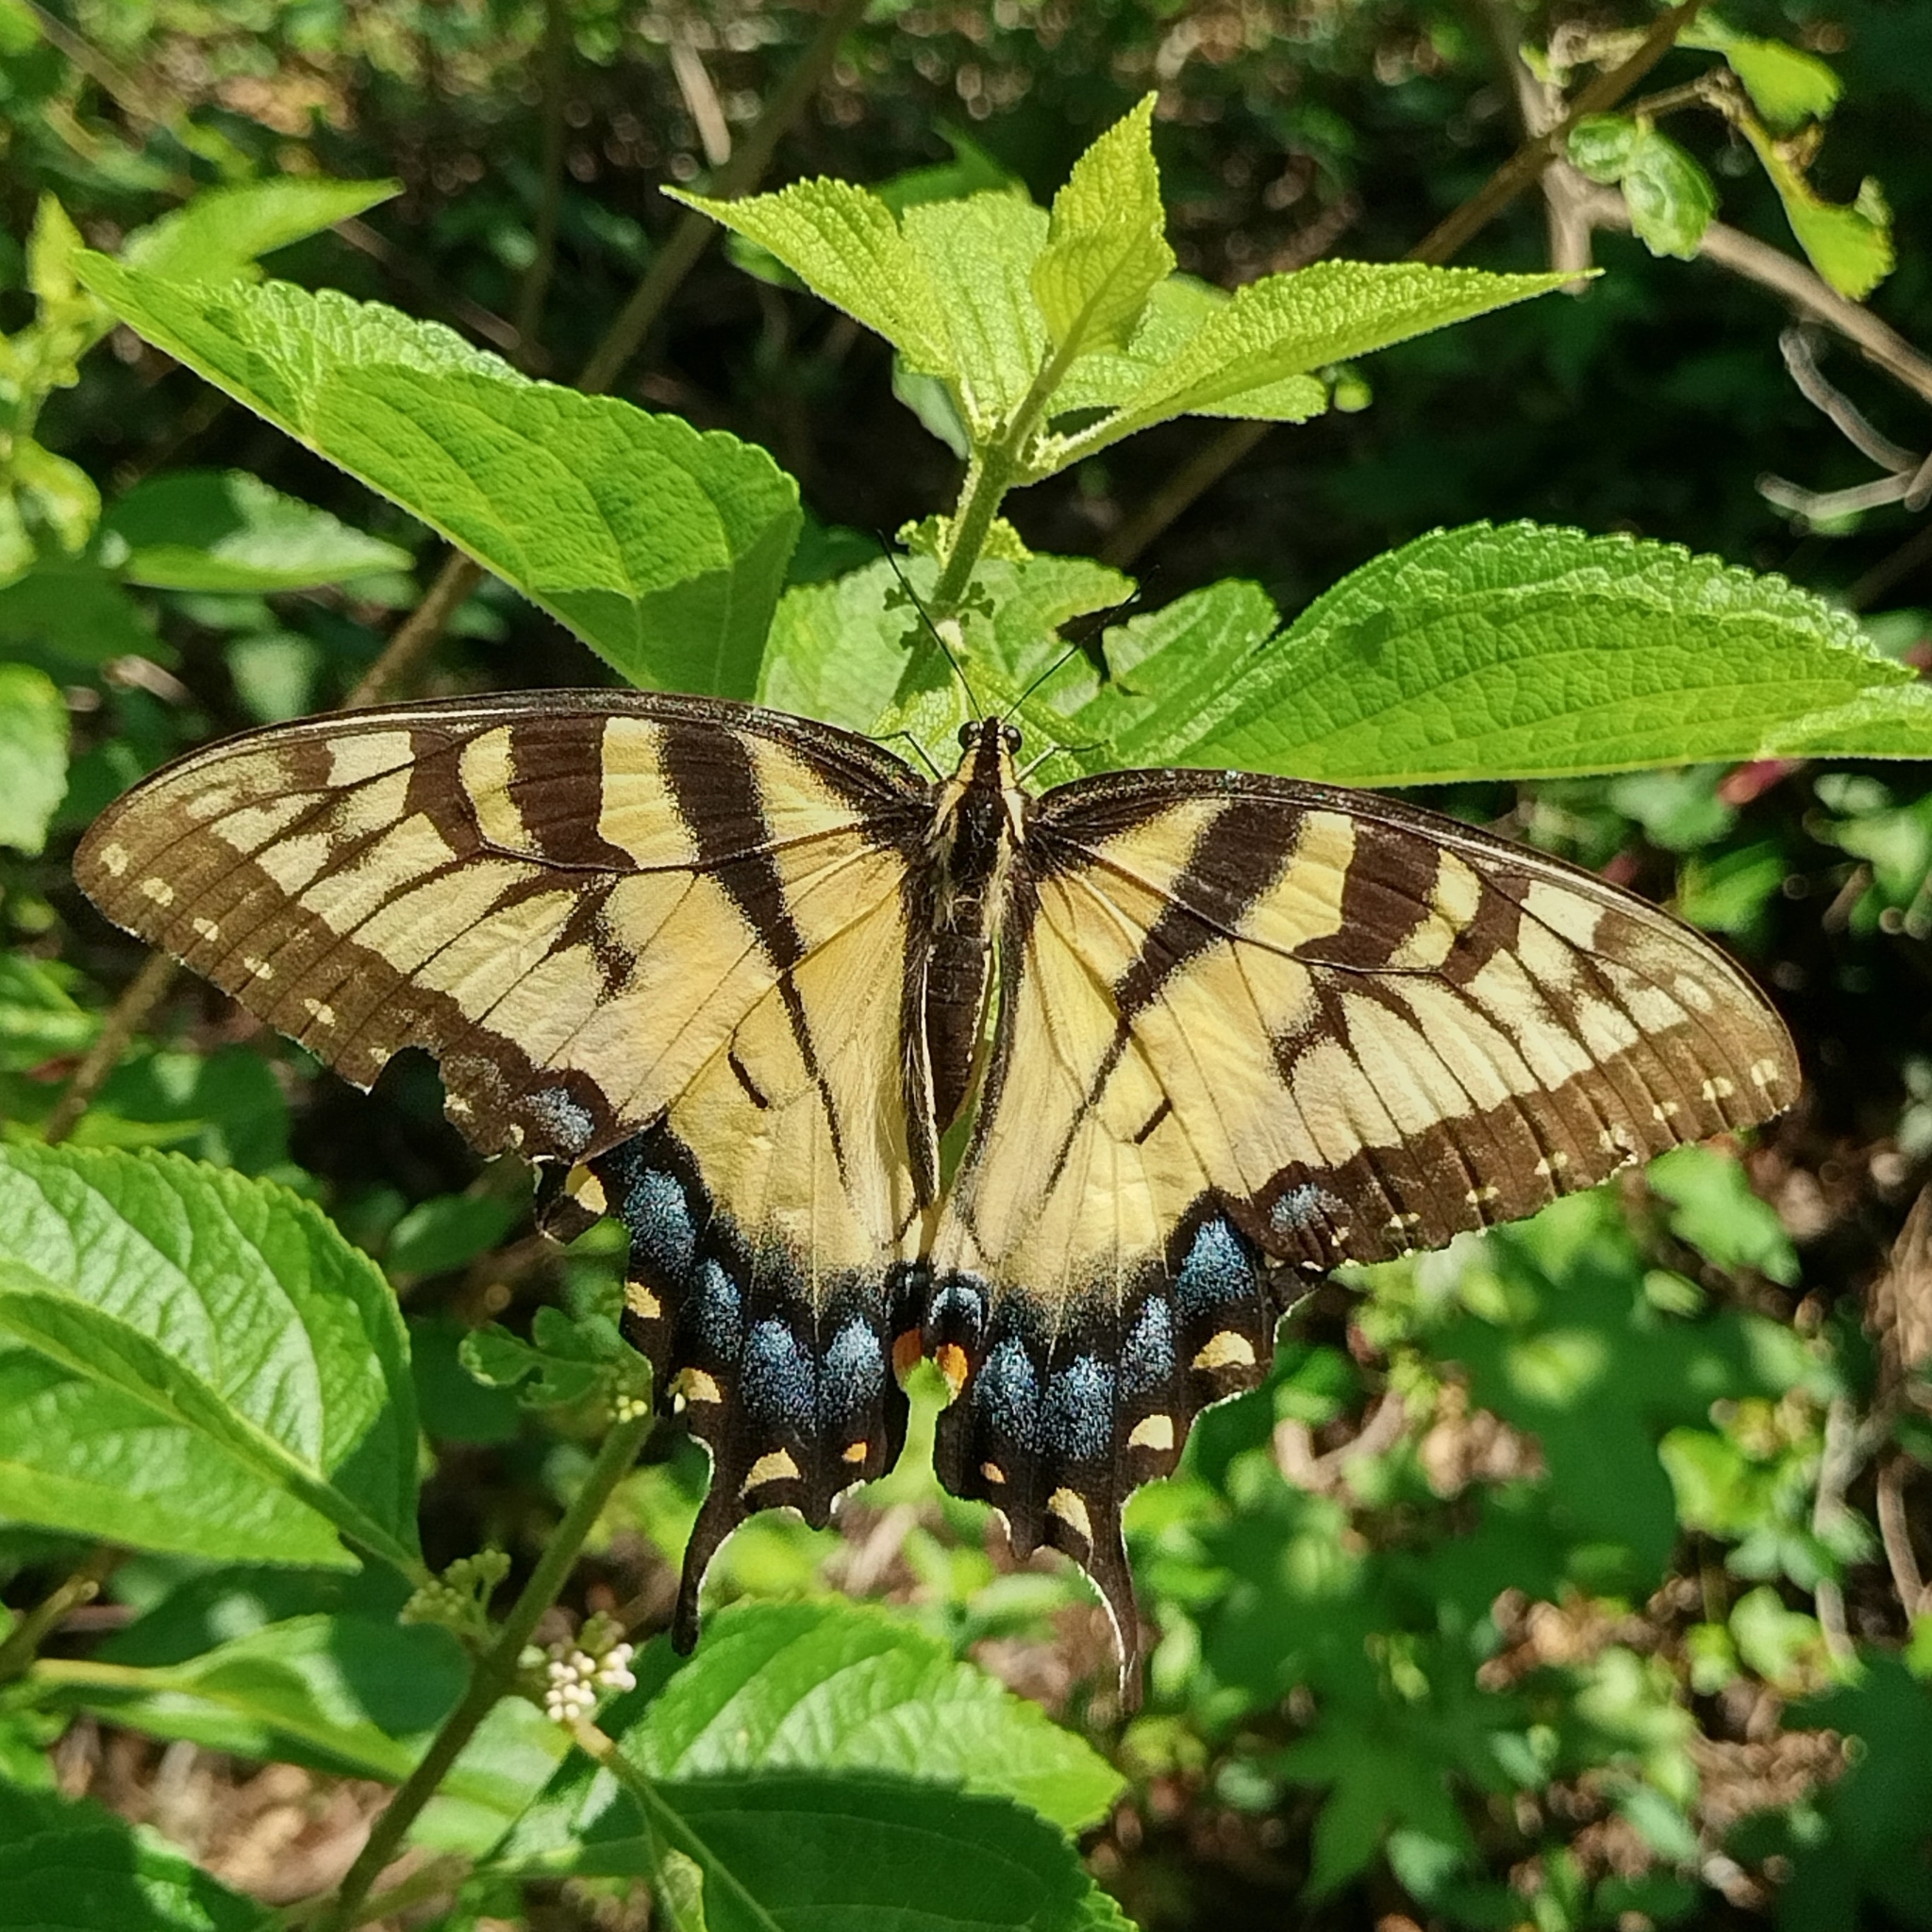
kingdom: Animalia
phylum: Arthropoda
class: Insecta
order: Lepidoptera
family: Papilionidae
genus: Papilio
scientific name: Papilio glaucus
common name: Tiger swallowtail
